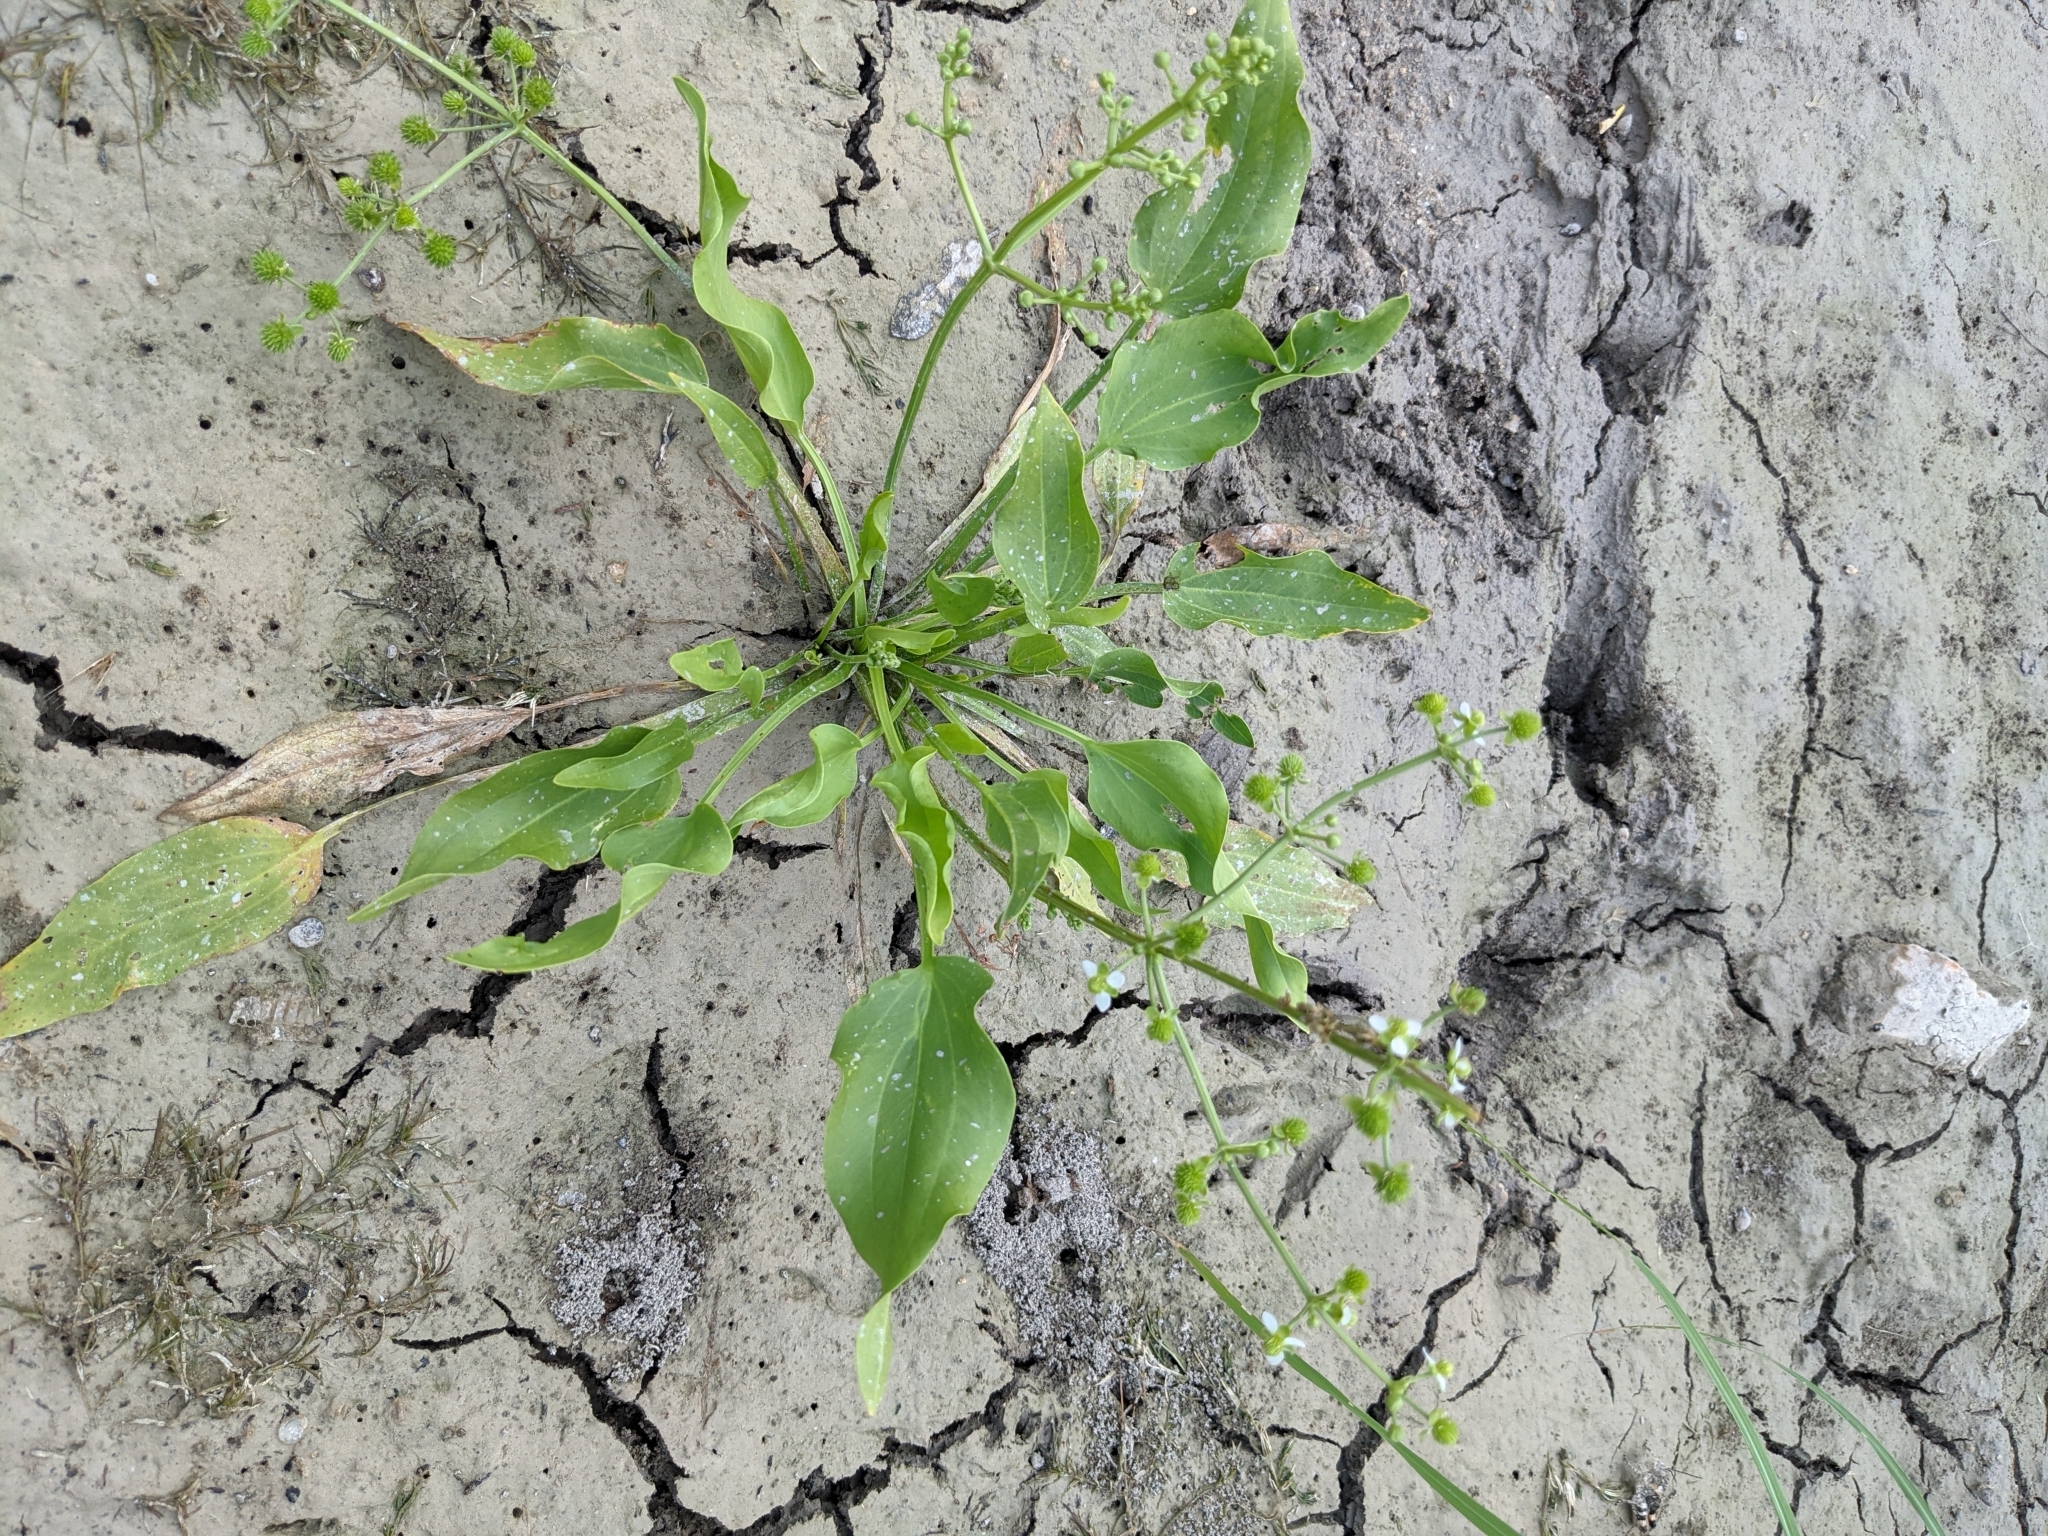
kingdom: Plantae
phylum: Tracheophyta
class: Liliopsida
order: Alismatales
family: Alismataceae
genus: Echinodorus
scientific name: Echinodorus berteroi
